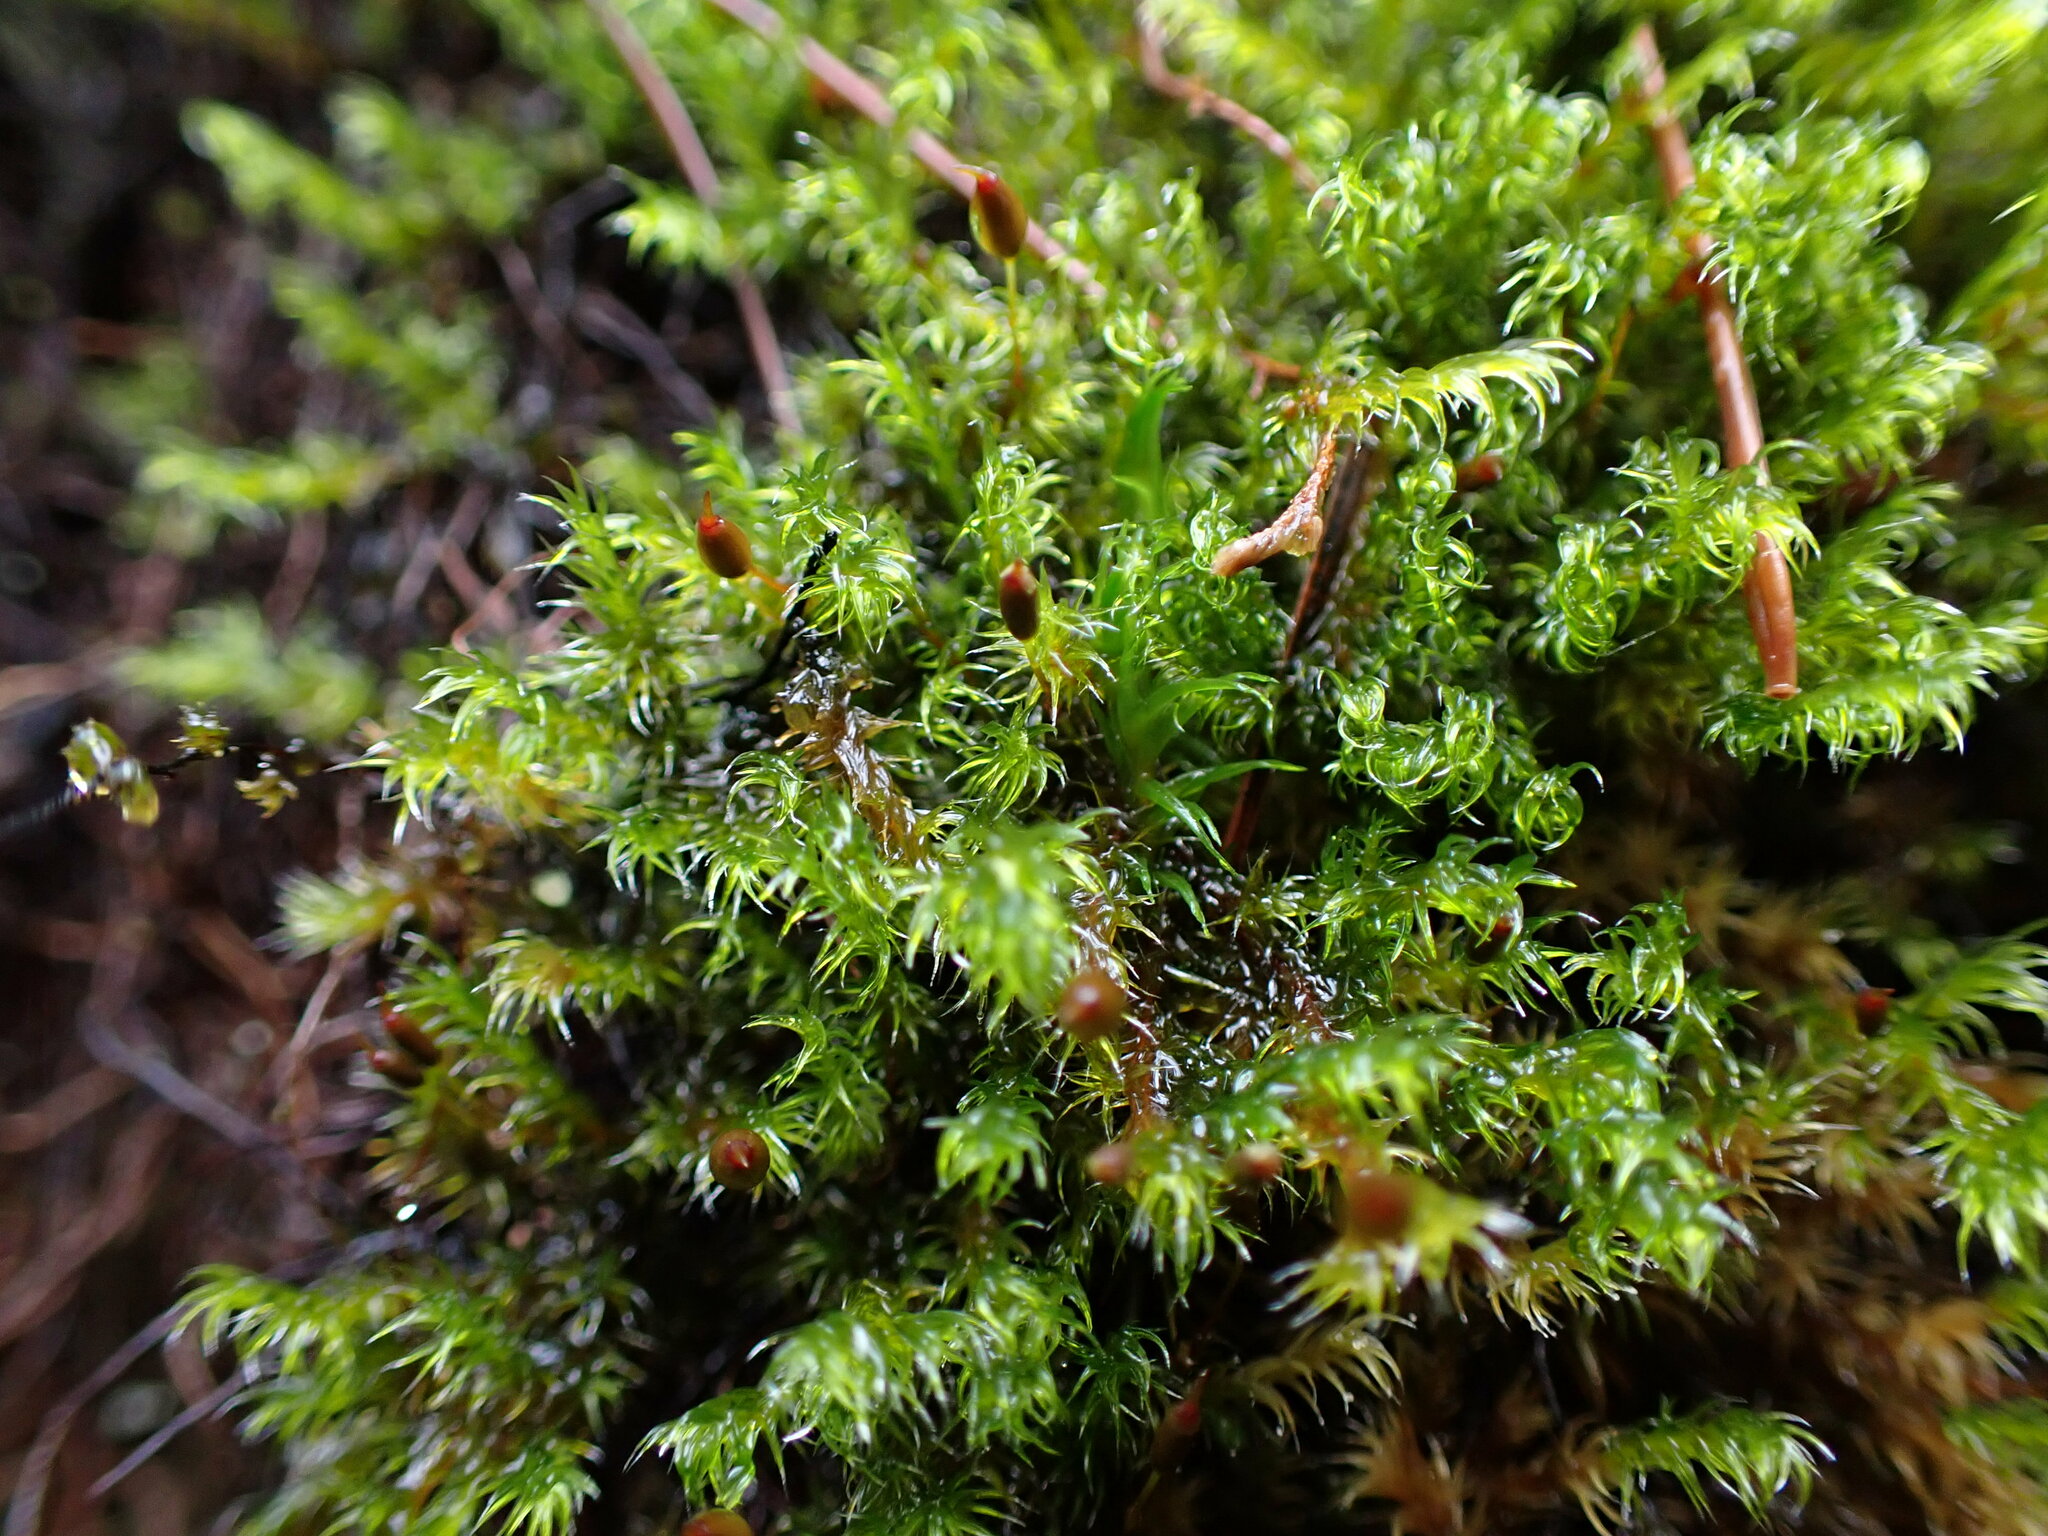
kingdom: Plantae
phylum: Bryophyta
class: Bryopsida
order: Grimmiales
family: Grimmiaceae
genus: Bucklandiella
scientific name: Bucklandiella heterosticha
